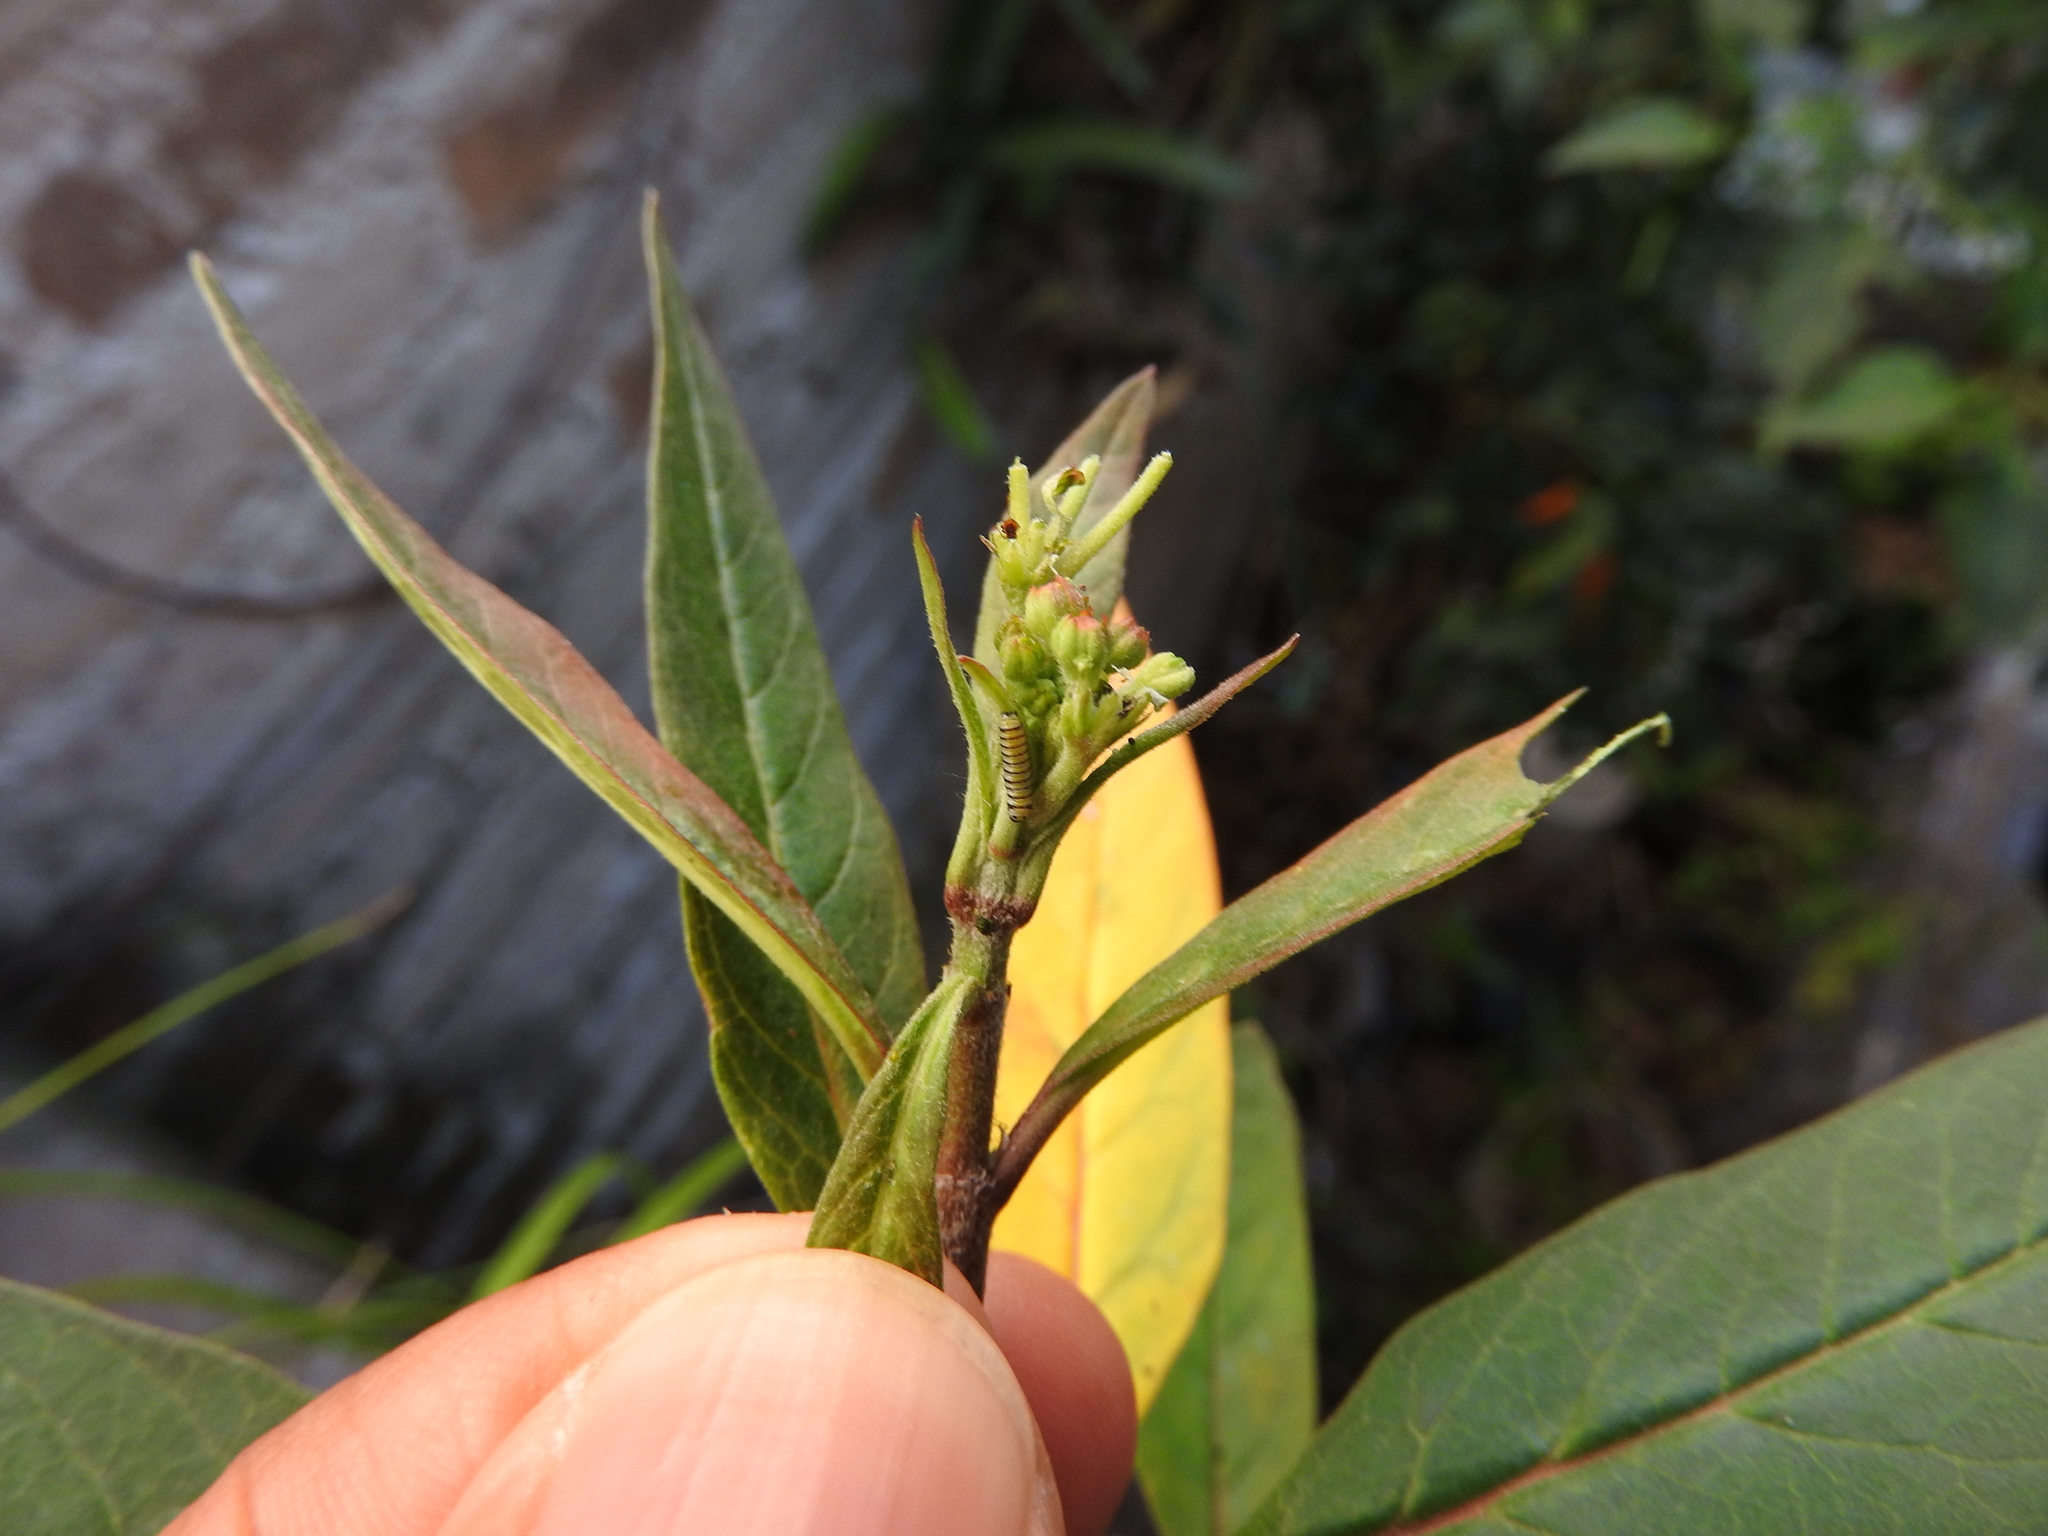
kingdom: Animalia
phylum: Arthropoda
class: Insecta
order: Lepidoptera
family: Nymphalidae
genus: Danaus
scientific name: Danaus plexippus
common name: Monarch
